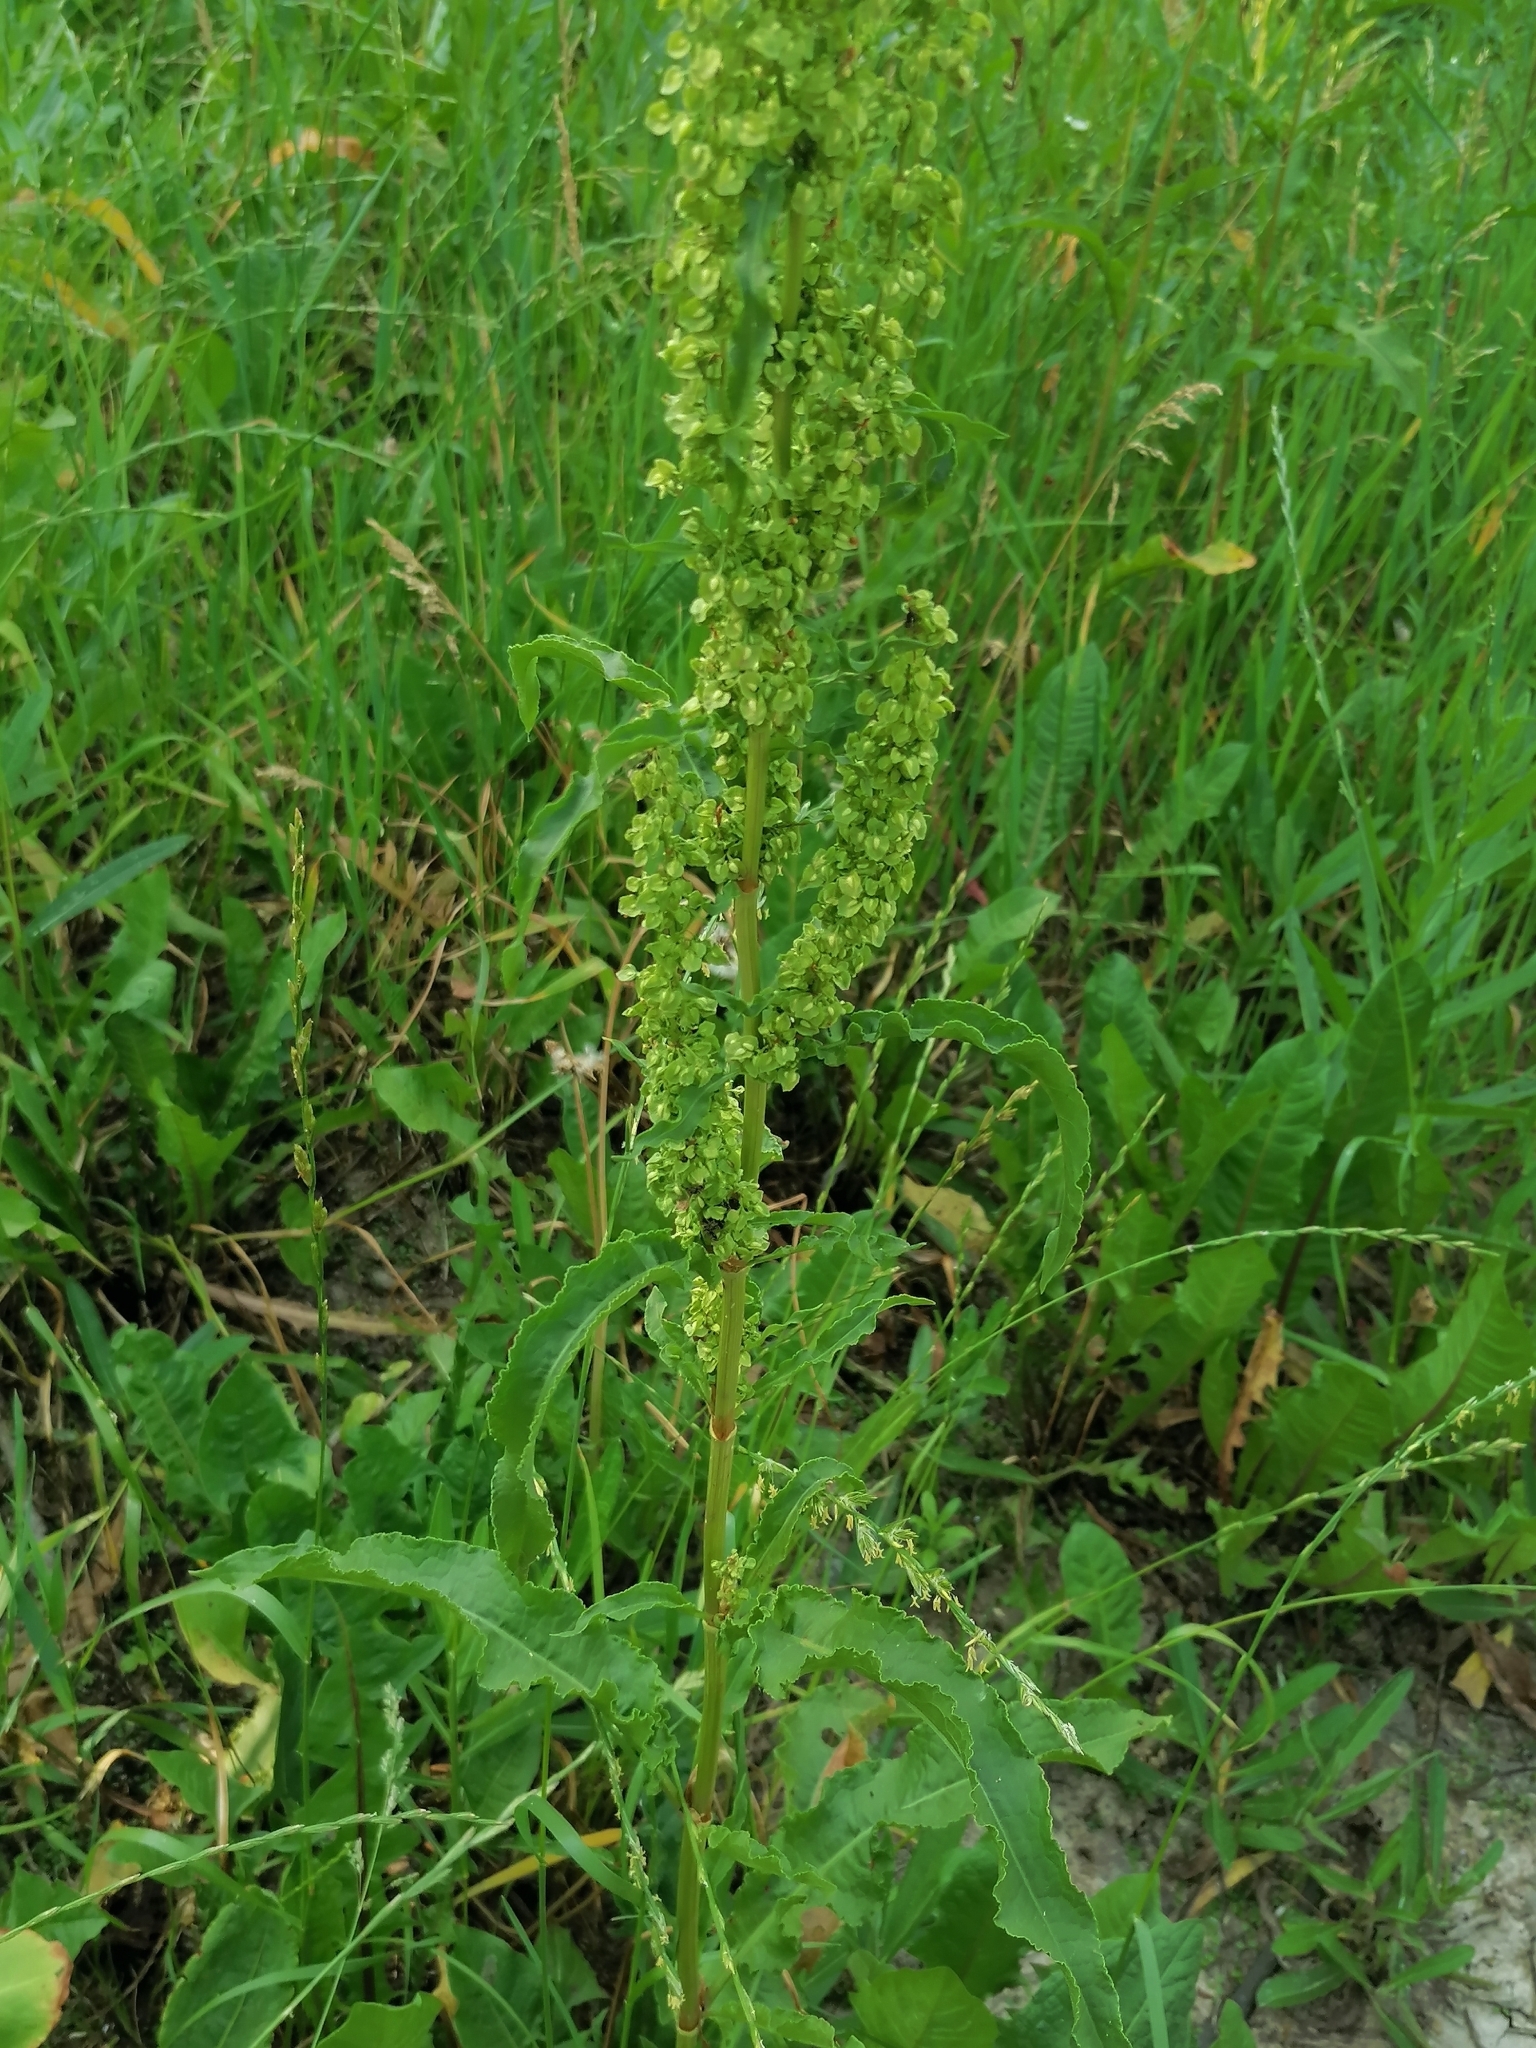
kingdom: Plantae
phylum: Tracheophyta
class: Magnoliopsida
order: Caryophyllales
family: Polygonaceae
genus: Rumex
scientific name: Rumex crispus
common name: Curled dock
